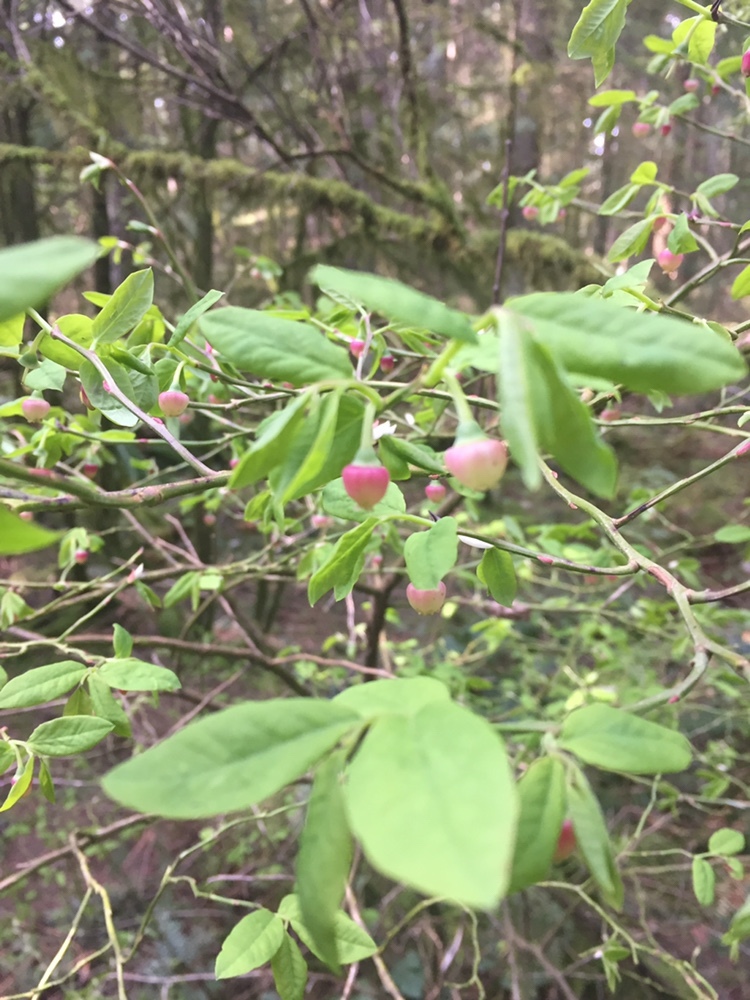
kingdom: Plantae
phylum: Tracheophyta
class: Magnoliopsida
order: Ericales
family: Ericaceae
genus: Vaccinium
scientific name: Vaccinium parvifolium
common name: Red-huckleberry
